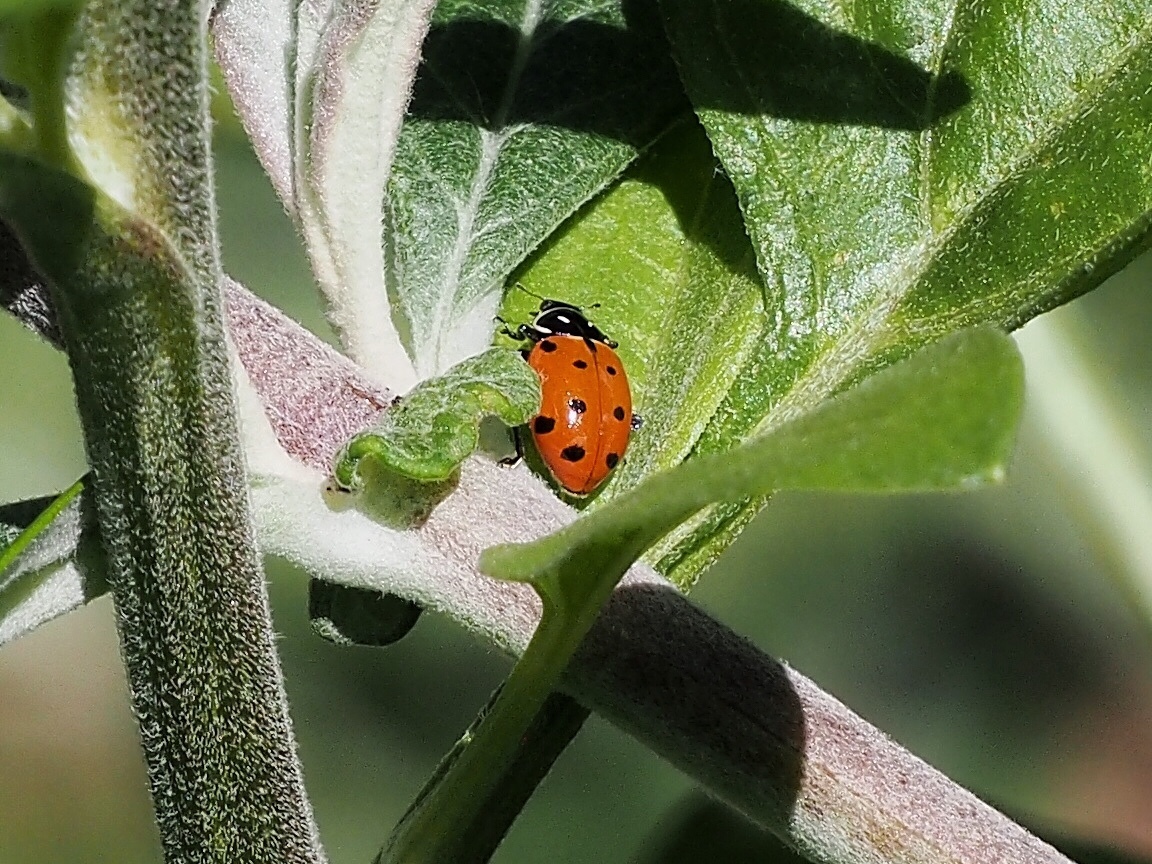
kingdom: Animalia
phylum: Arthropoda
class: Insecta
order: Coleoptera
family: Coccinellidae
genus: Hippodamia
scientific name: Hippodamia convergens
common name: Convergent lady beetle
